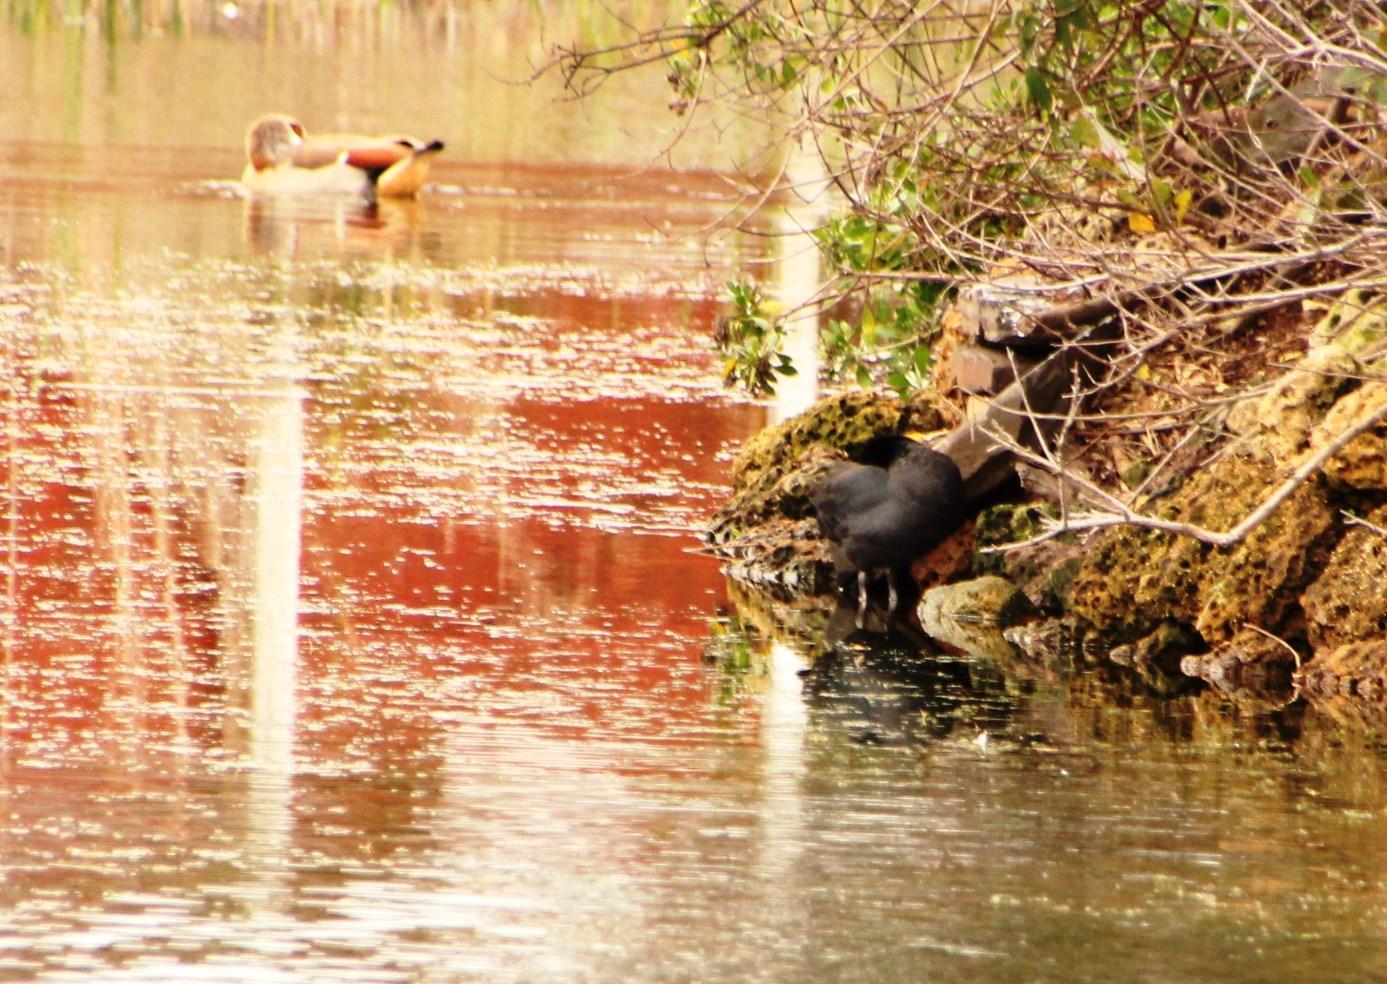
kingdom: Animalia
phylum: Chordata
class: Aves
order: Anseriformes
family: Anatidae
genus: Alopochen
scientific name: Alopochen aegyptiaca
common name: Egyptian goose
